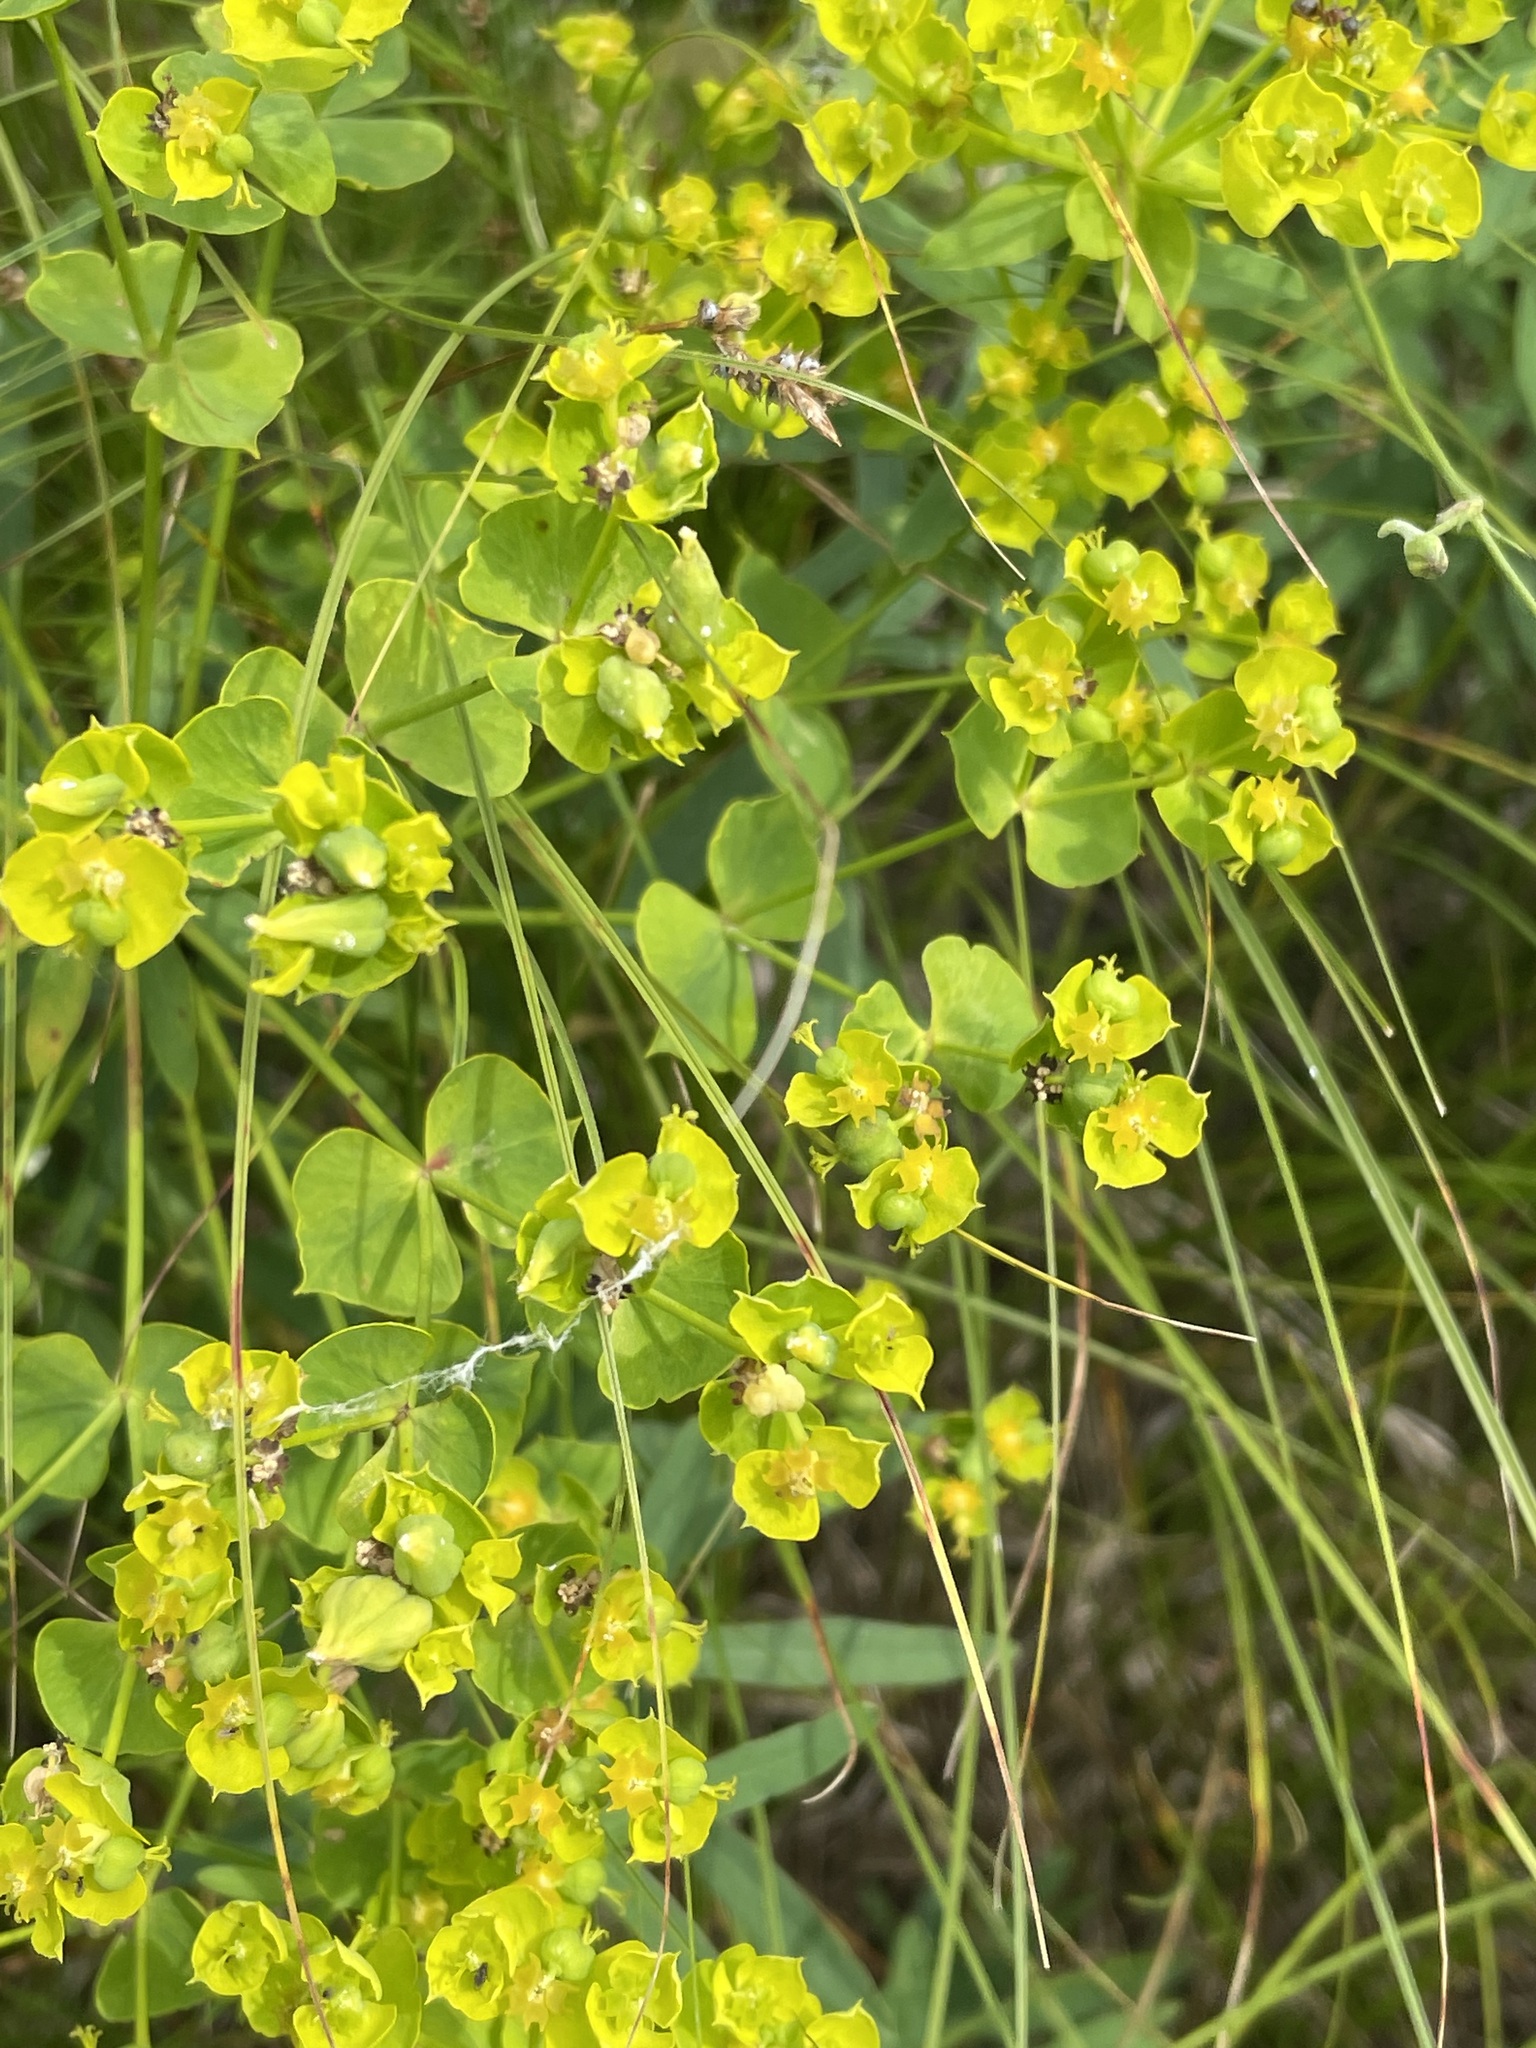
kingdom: Plantae
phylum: Tracheophyta
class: Magnoliopsida
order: Malpighiales
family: Euphorbiaceae
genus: Euphorbia
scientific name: Euphorbia virgata
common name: Leafy spurge
